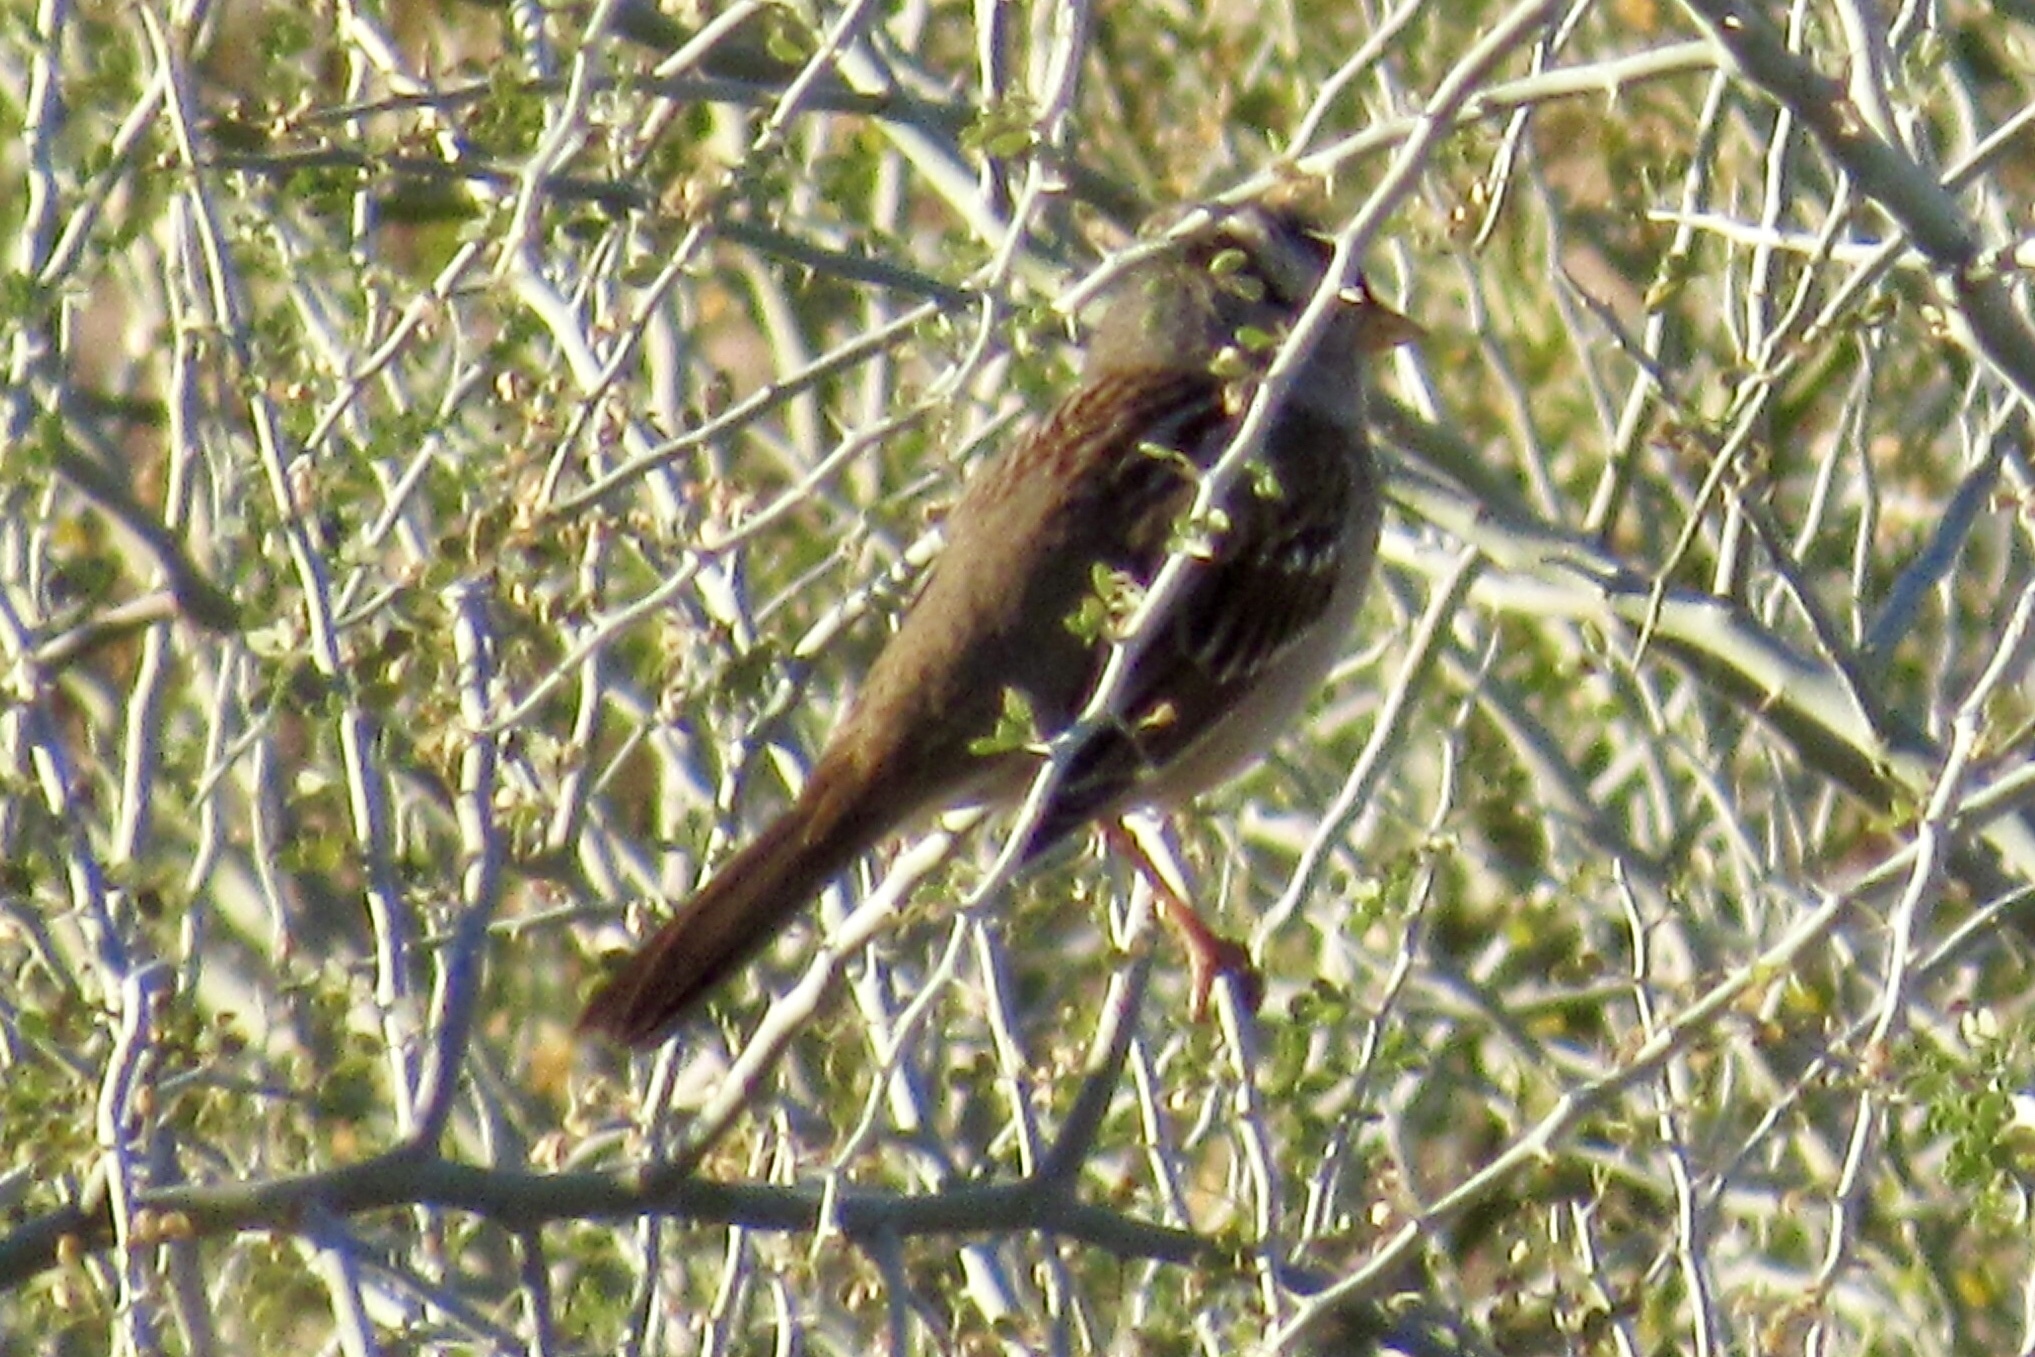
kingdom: Animalia
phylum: Chordata
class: Aves
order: Passeriformes
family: Passerellidae
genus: Zonotrichia
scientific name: Zonotrichia leucophrys
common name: White-crowned sparrow
